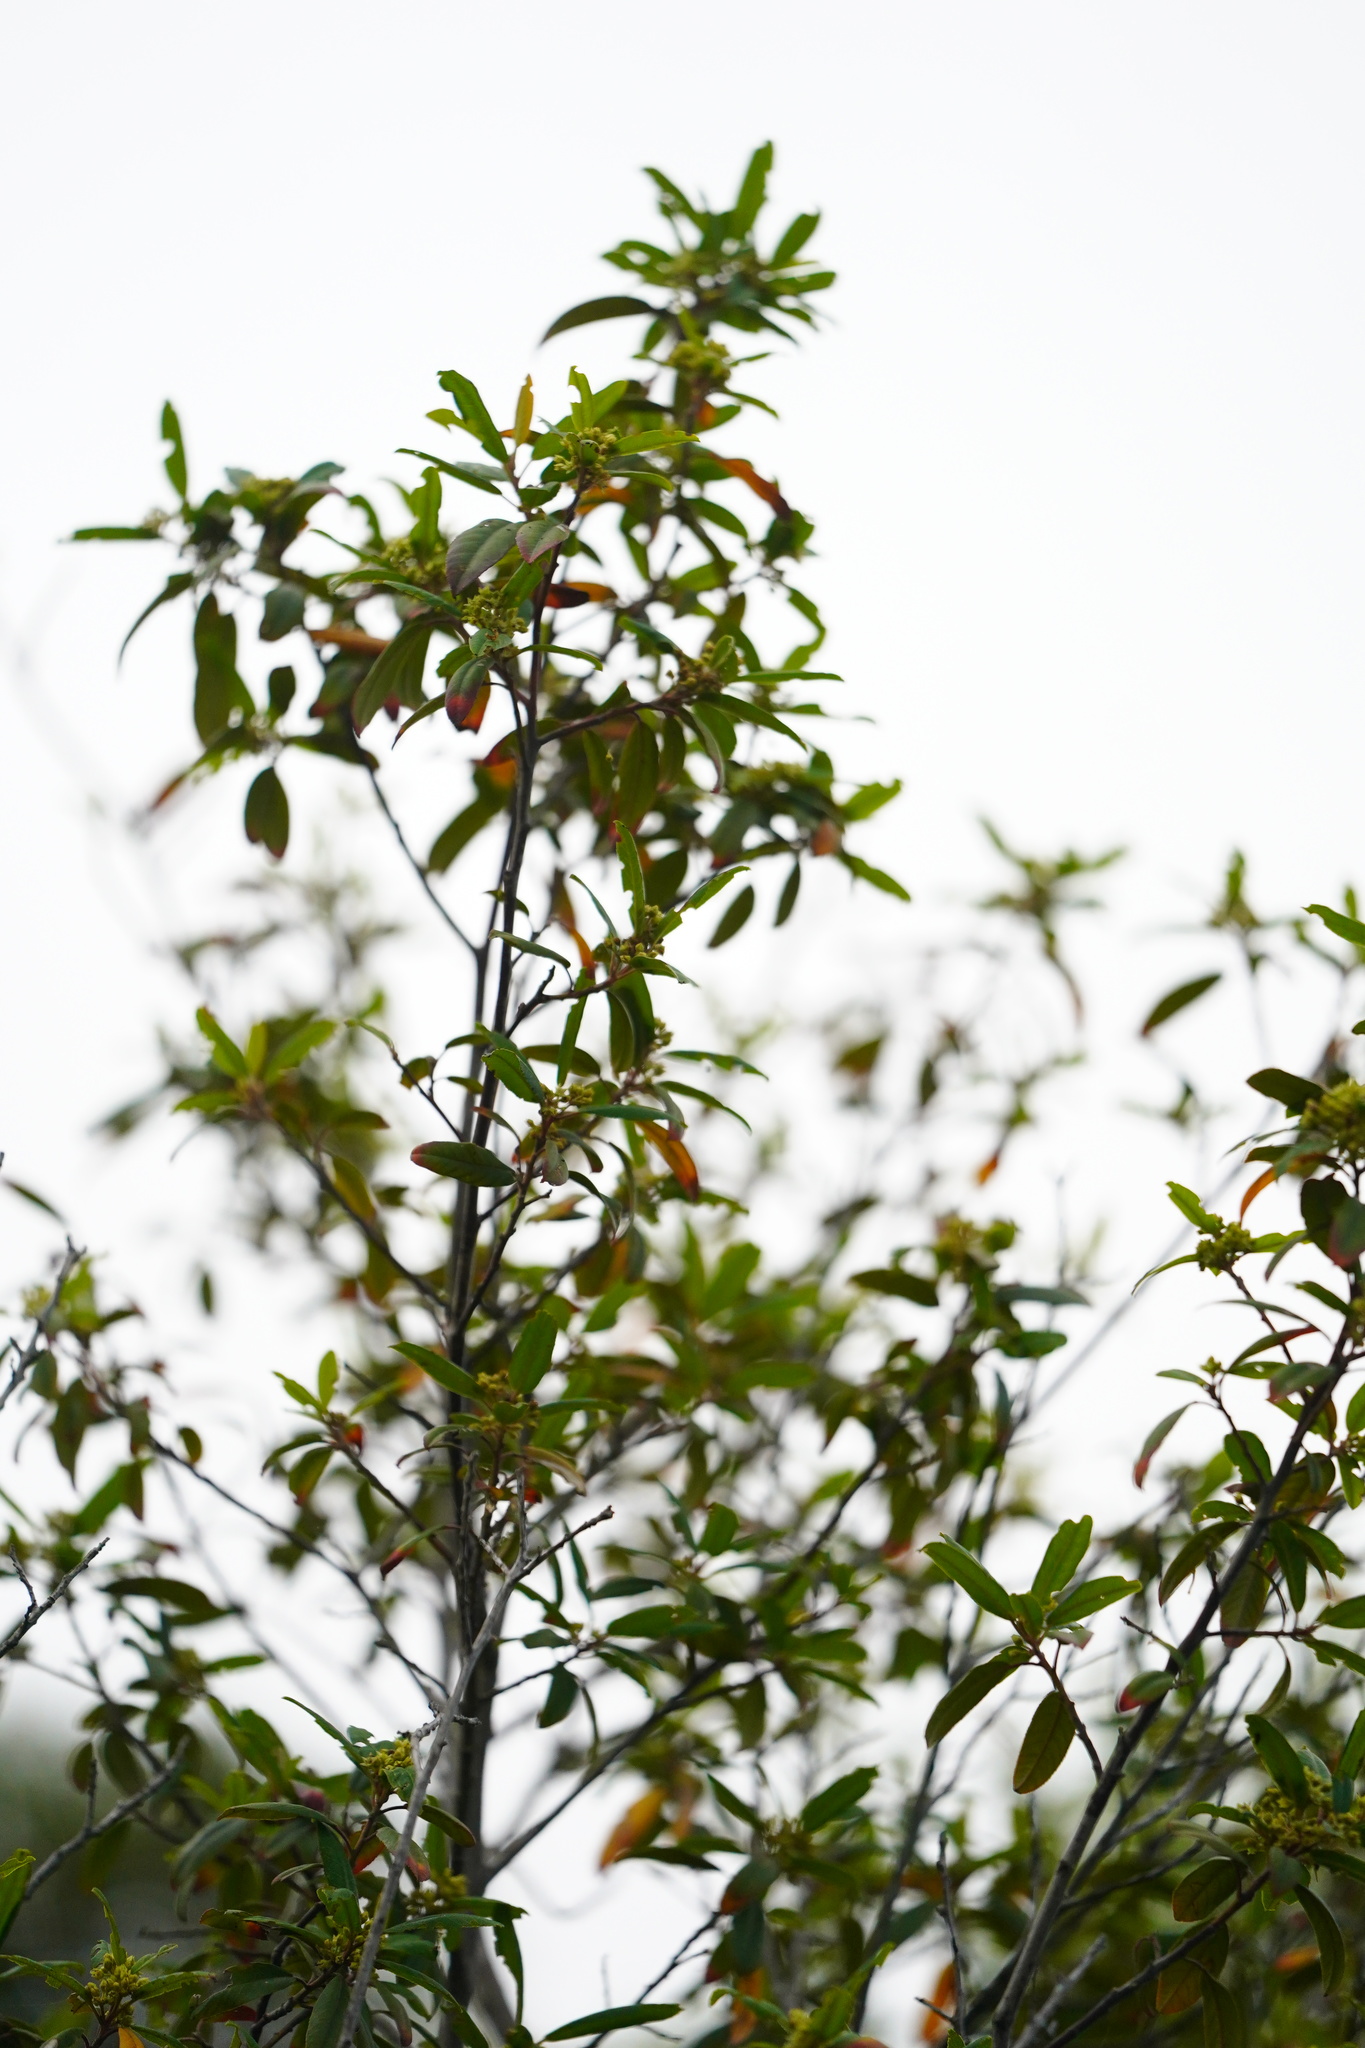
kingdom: Plantae
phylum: Tracheophyta
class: Magnoliopsida
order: Rosales
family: Rhamnaceae
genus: Frangula
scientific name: Frangula californica
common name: California buckthorn
